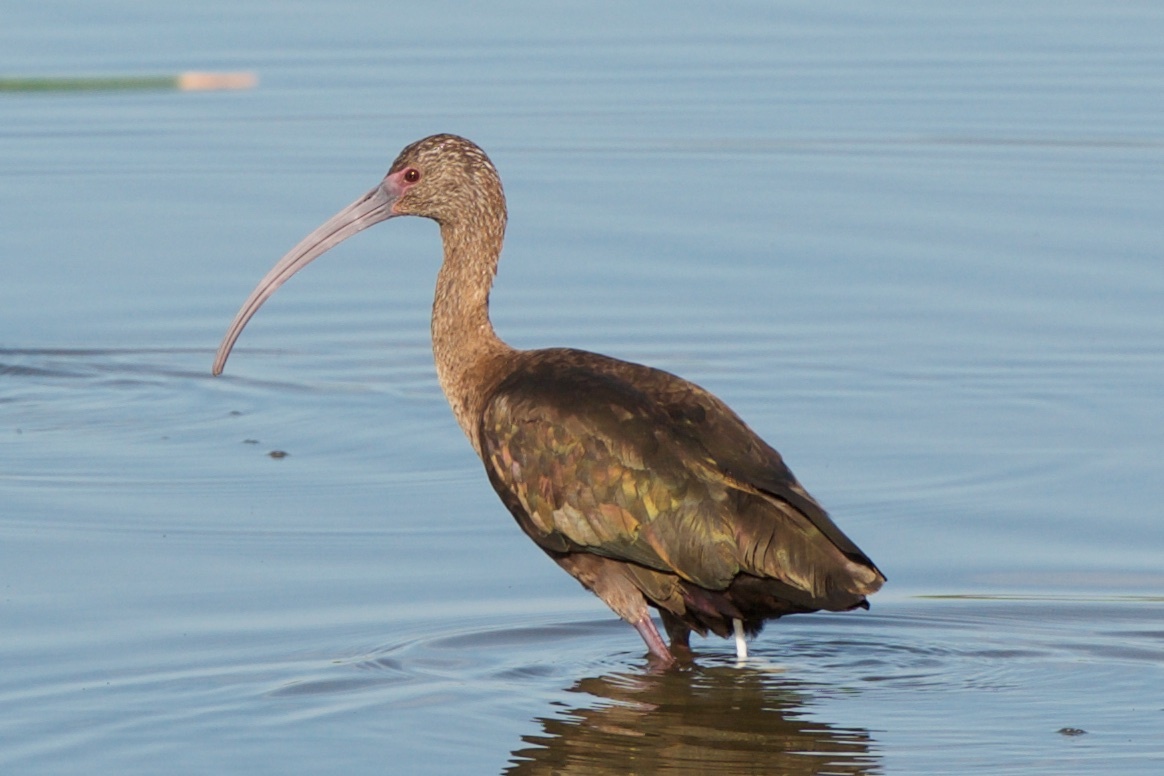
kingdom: Animalia
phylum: Chordata
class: Aves
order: Pelecaniformes
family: Threskiornithidae
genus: Plegadis
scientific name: Plegadis chihi
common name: White-faced ibis
